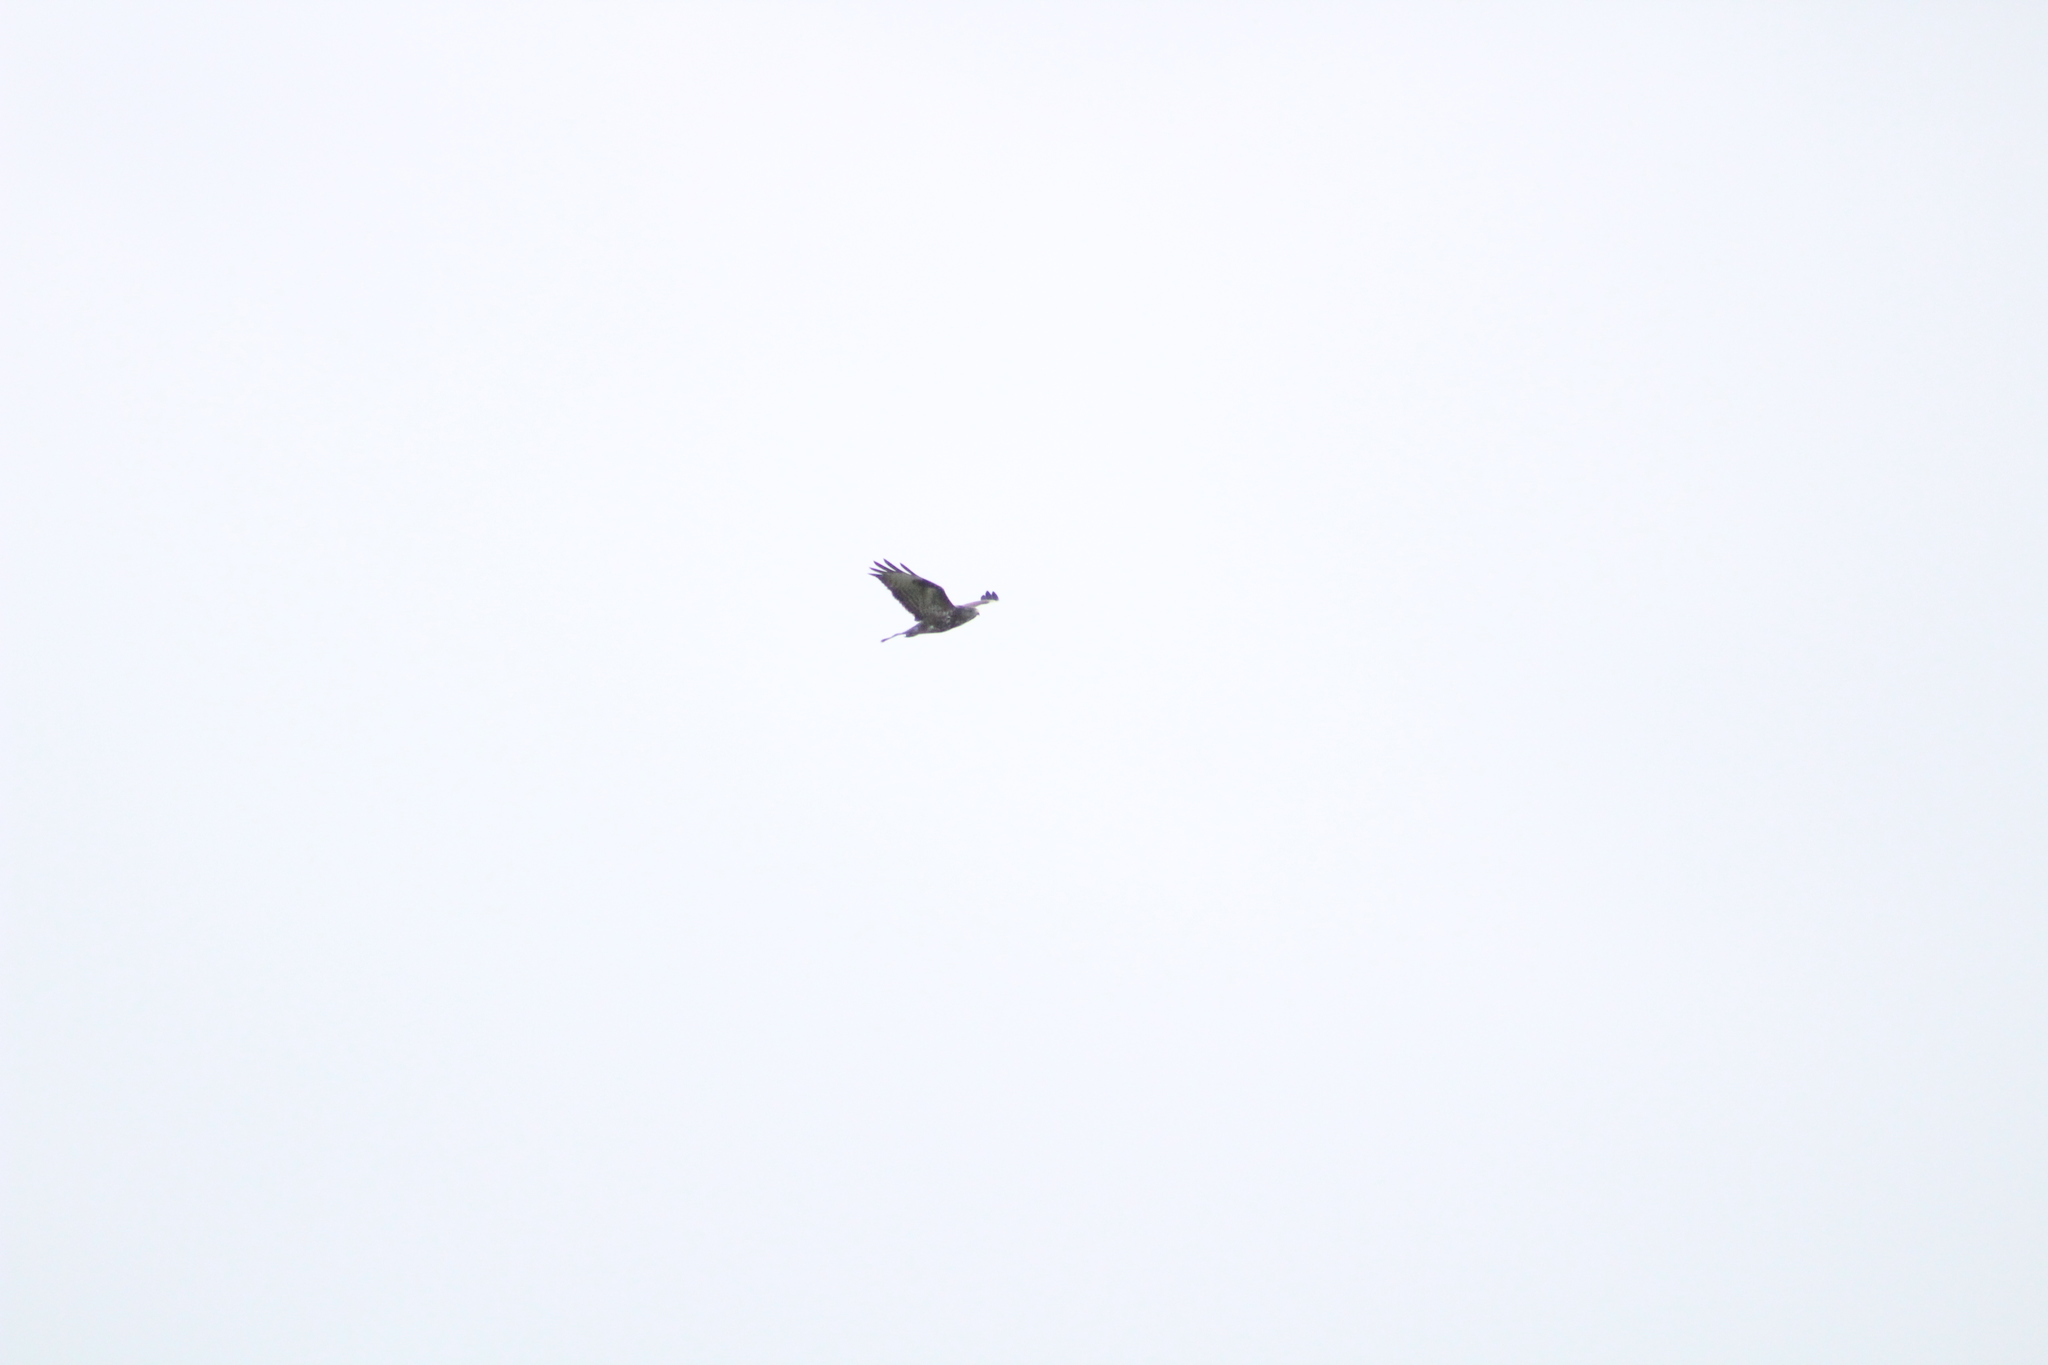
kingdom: Animalia
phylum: Chordata
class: Aves
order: Accipitriformes
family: Accipitridae
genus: Buteo
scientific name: Buteo buteo
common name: Common buzzard
